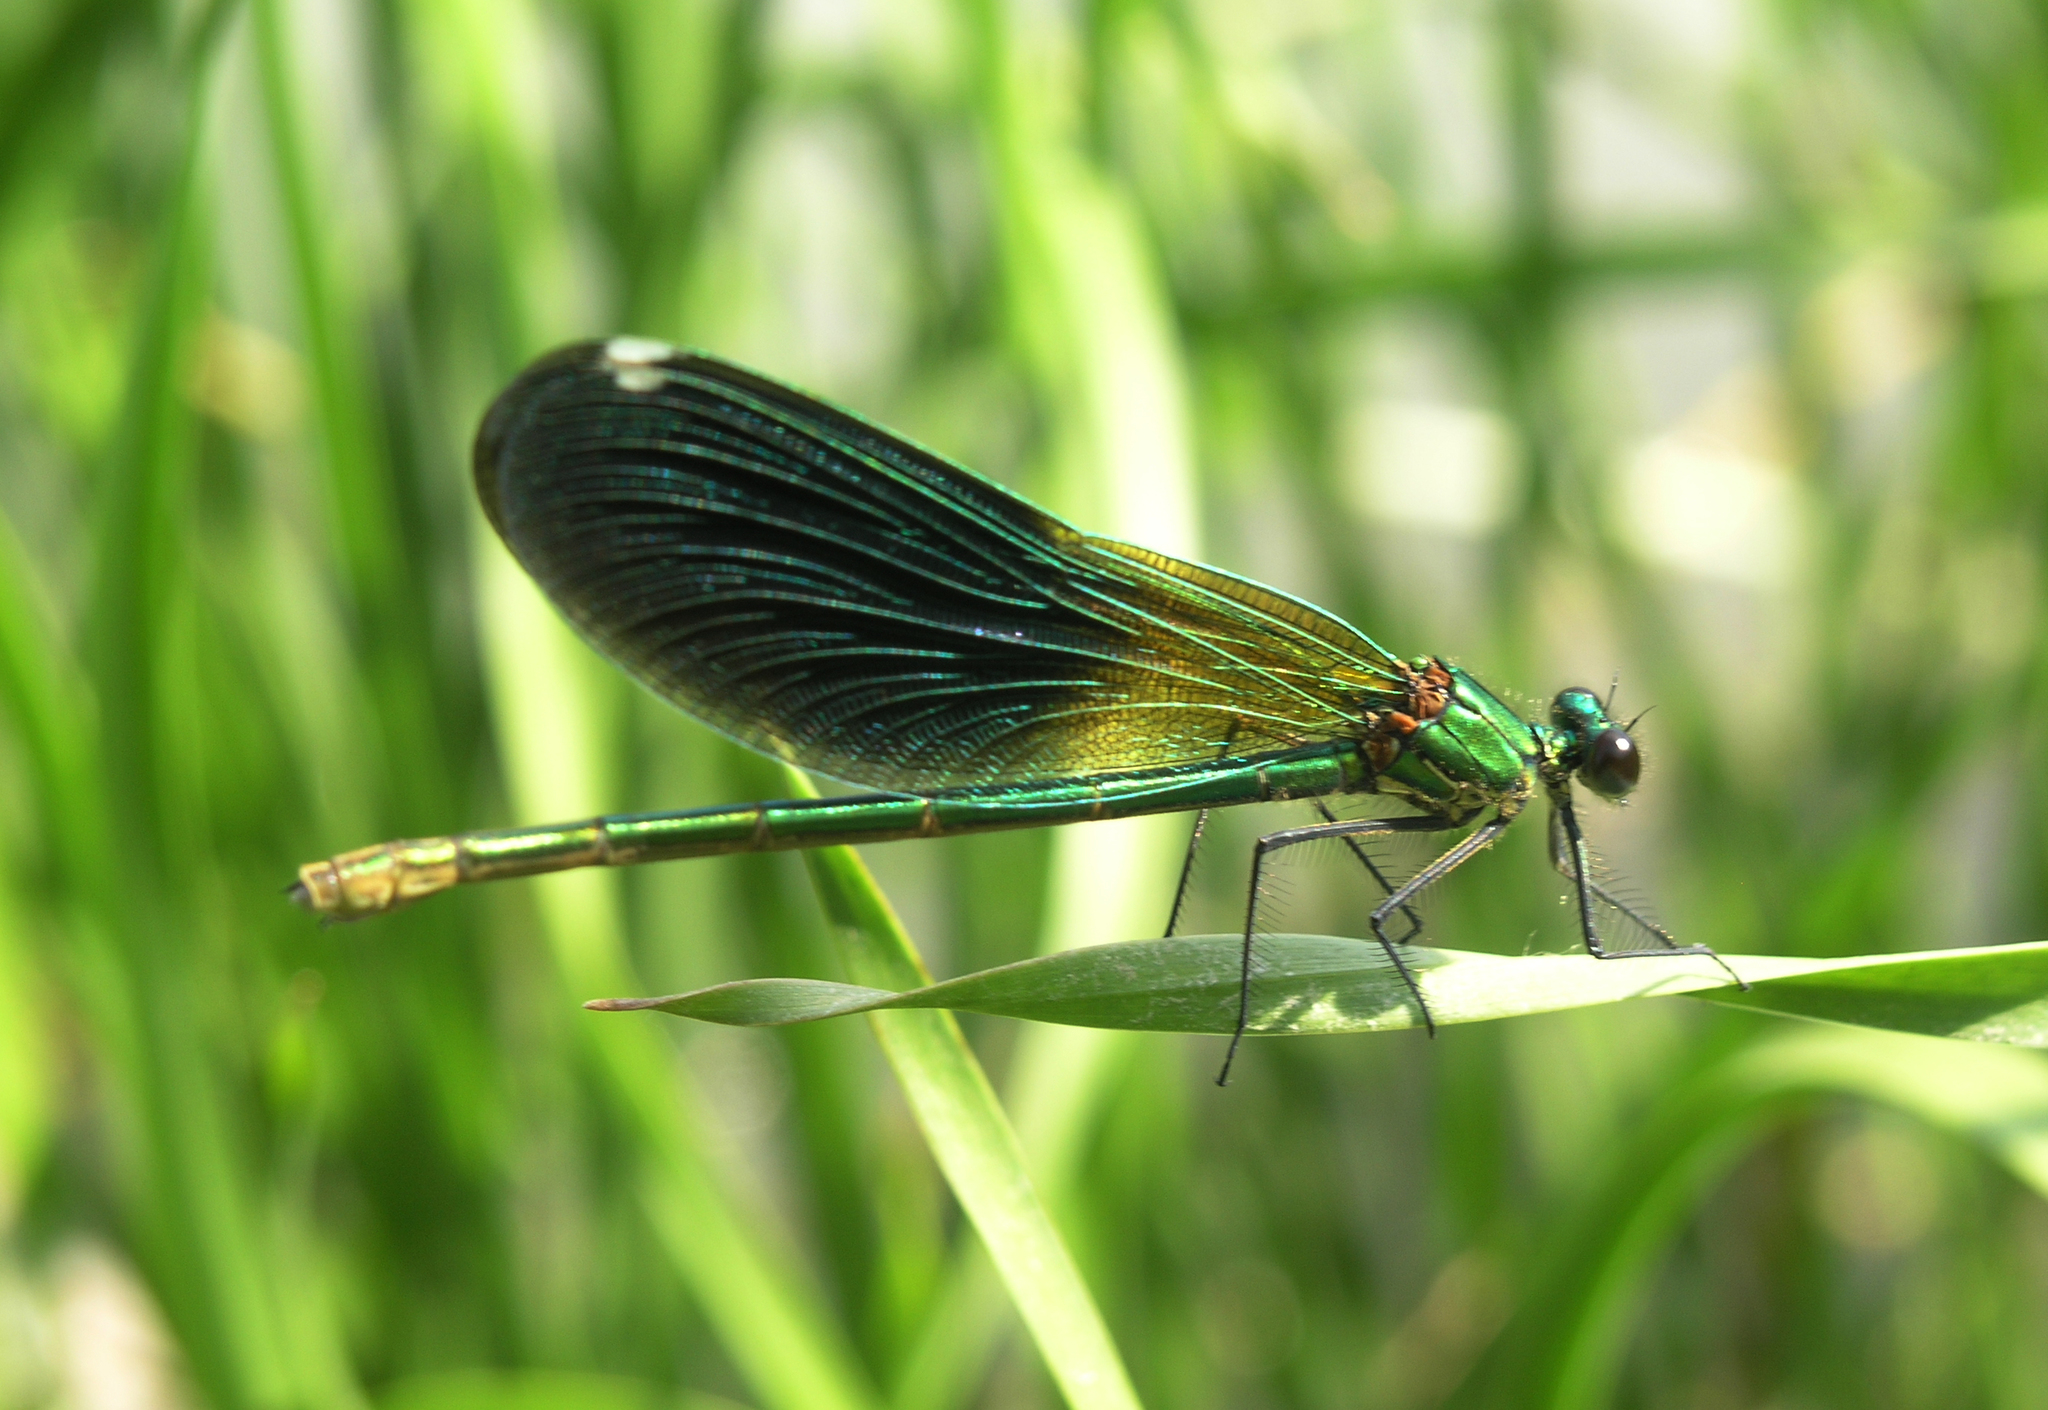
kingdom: Animalia
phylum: Arthropoda
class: Insecta
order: Odonata
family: Calopterygidae
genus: Calopteryx
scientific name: Calopteryx splendens
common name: Banded demoiselle
